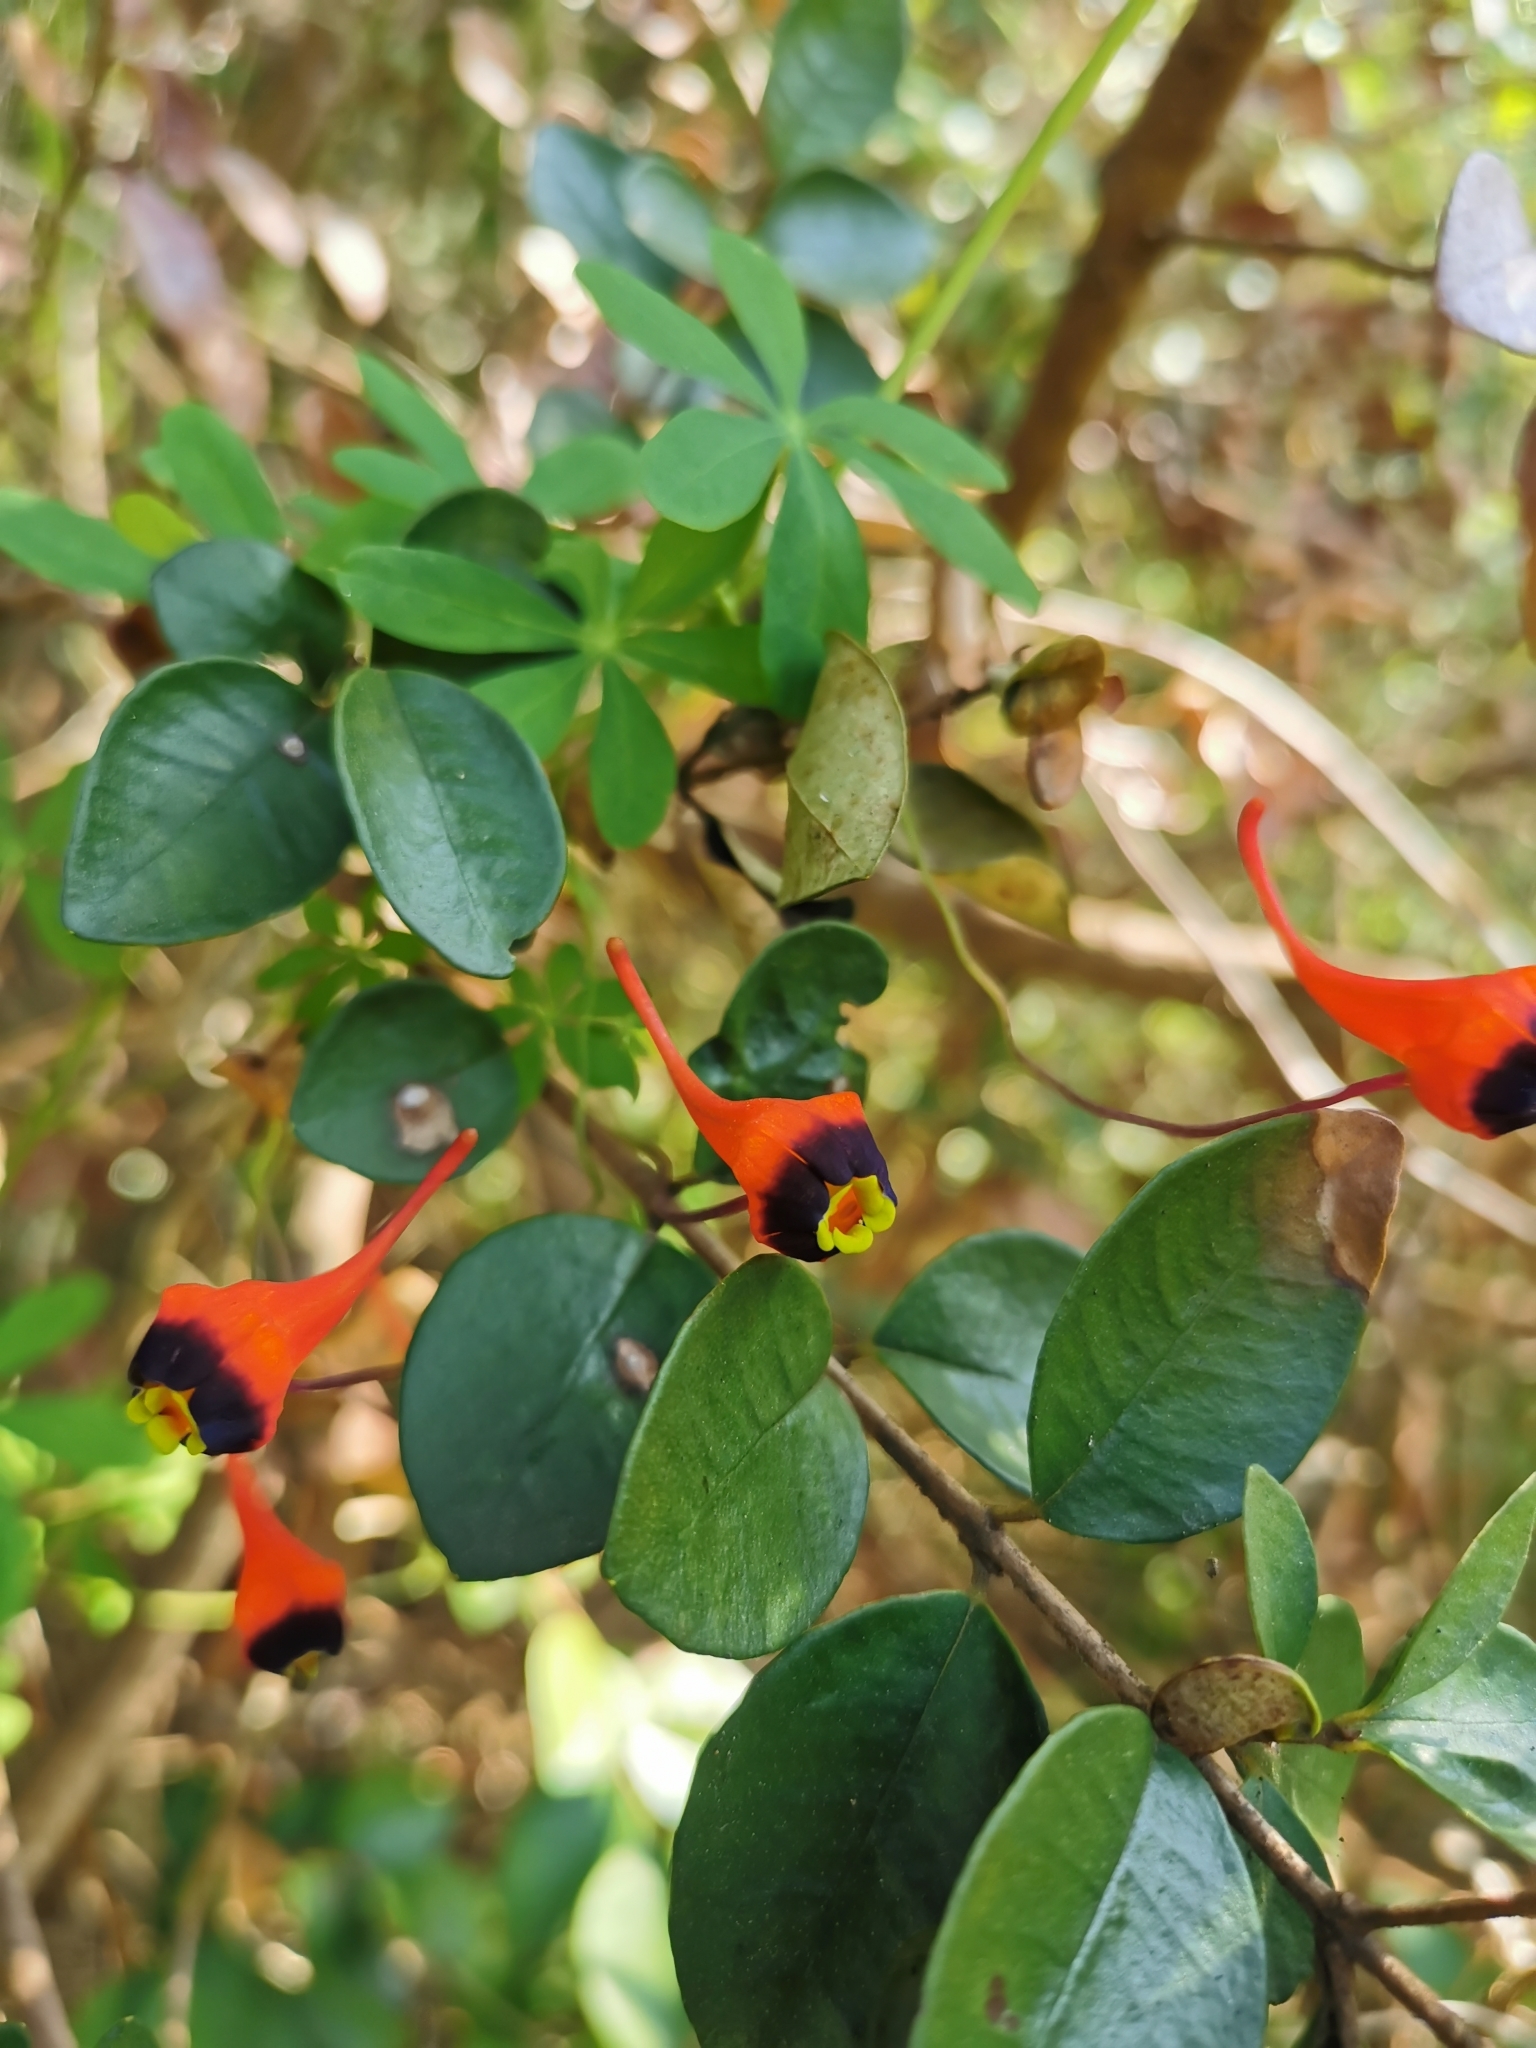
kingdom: Plantae
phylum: Tracheophyta
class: Magnoliopsida
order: Brassicales
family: Tropaeolaceae
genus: Tropaeolum
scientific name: Tropaeolum tricolor
